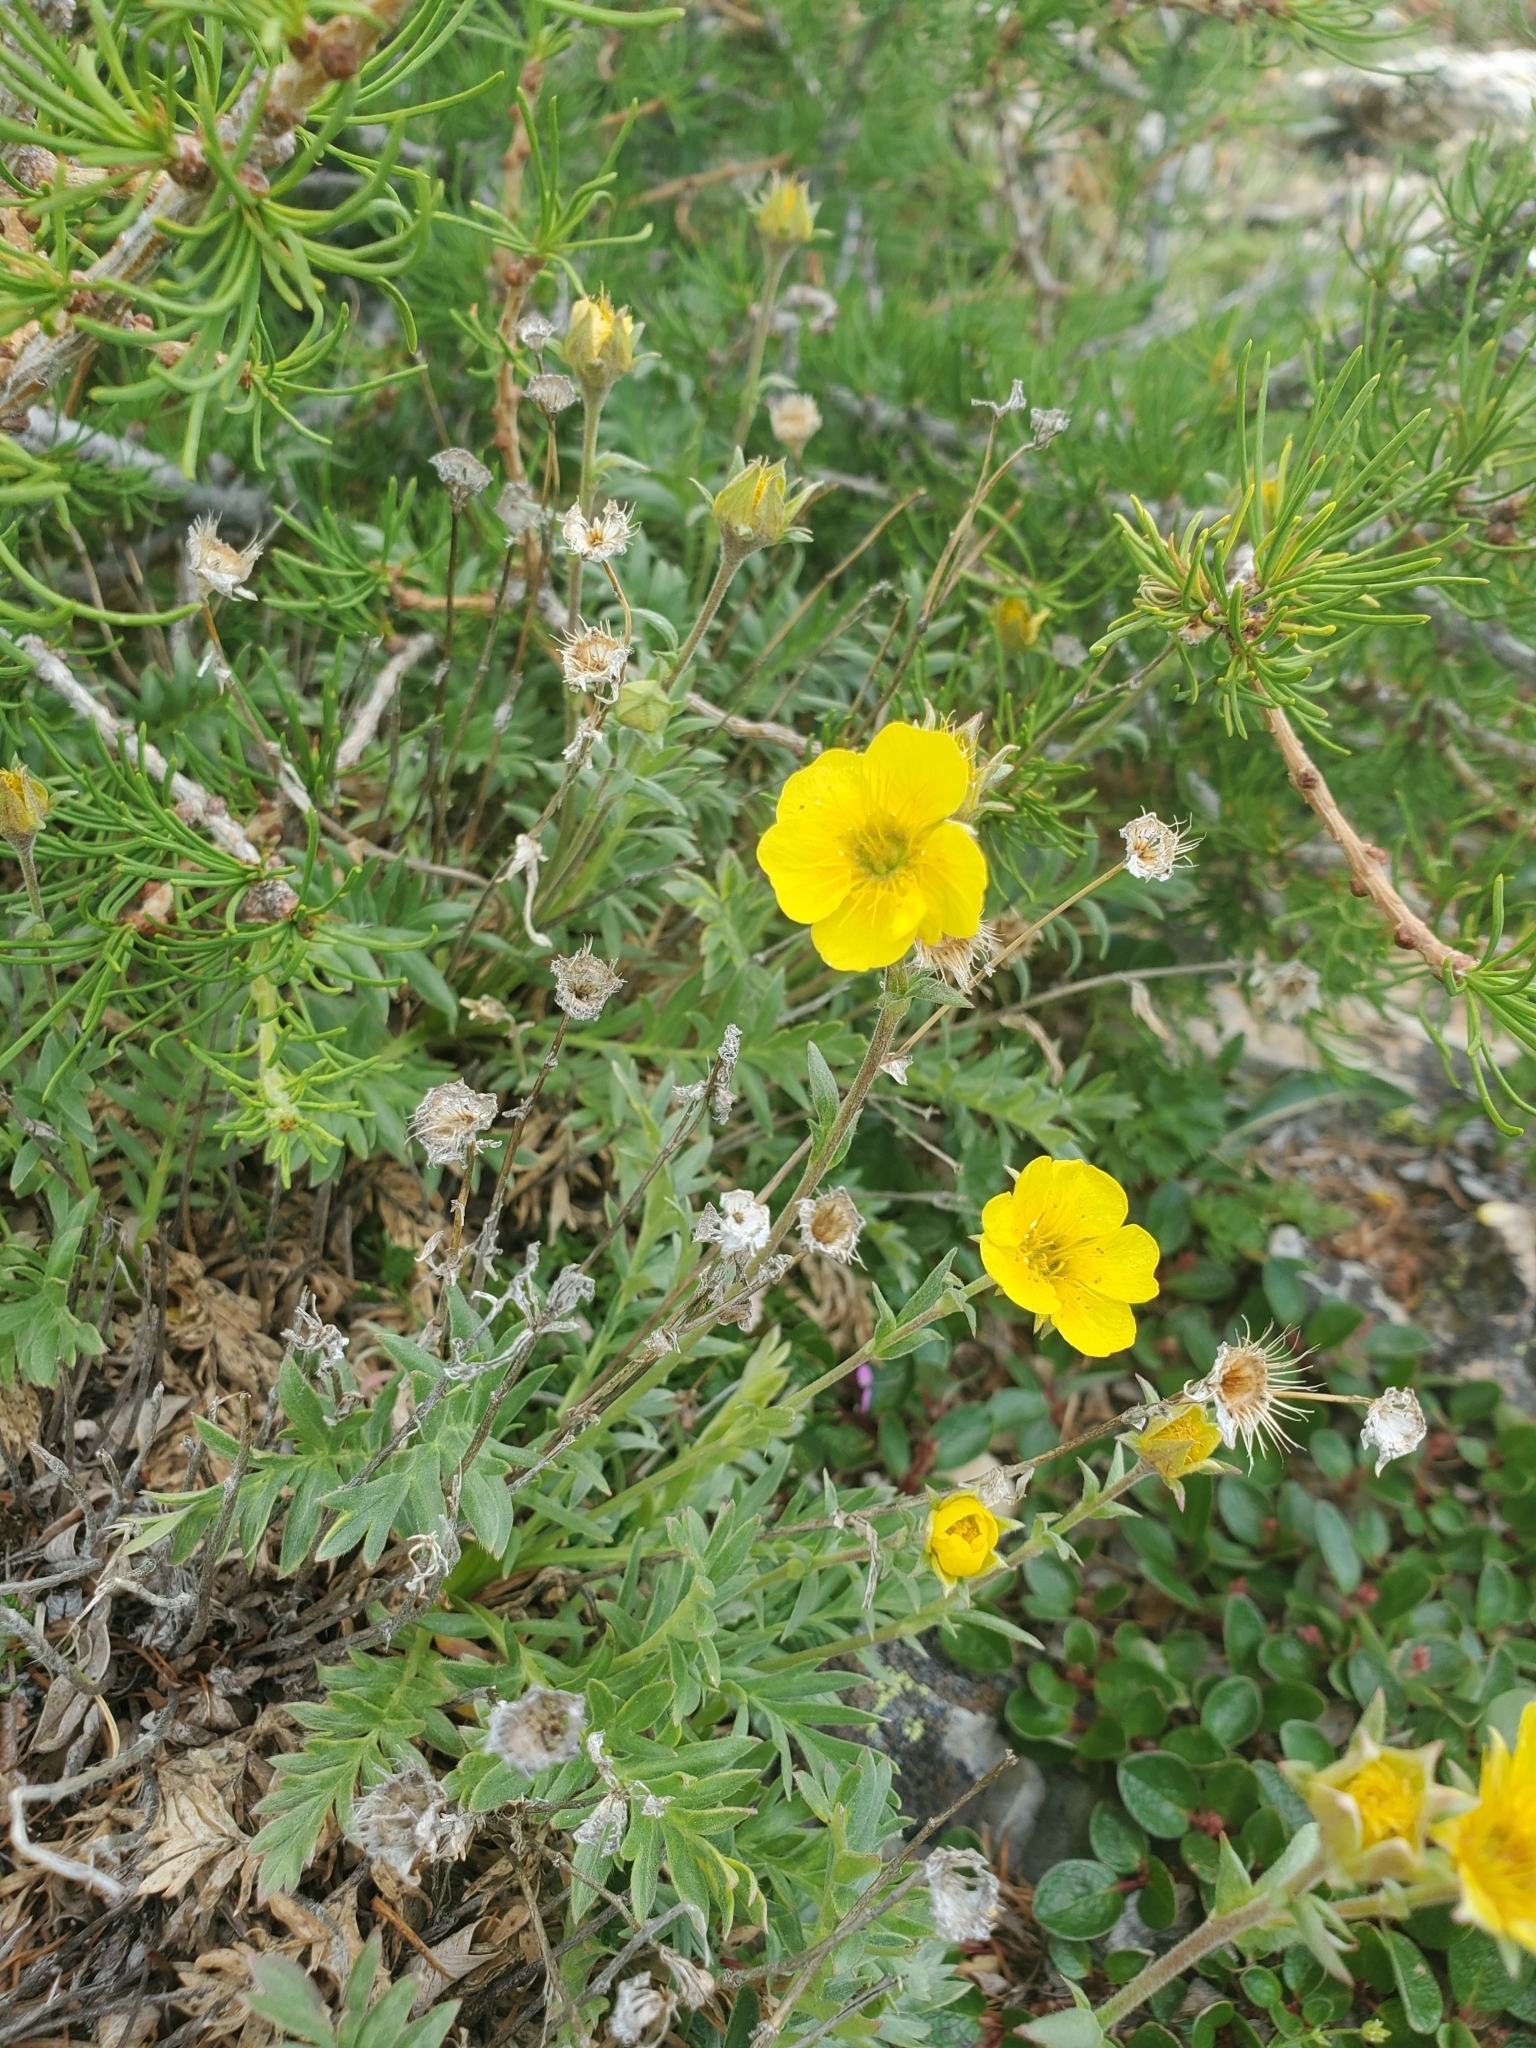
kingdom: Plantae
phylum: Tracheophyta
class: Magnoliopsida
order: Rosales
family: Rosaceae
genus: Geum
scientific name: Geum rossii
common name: Alpine avens
